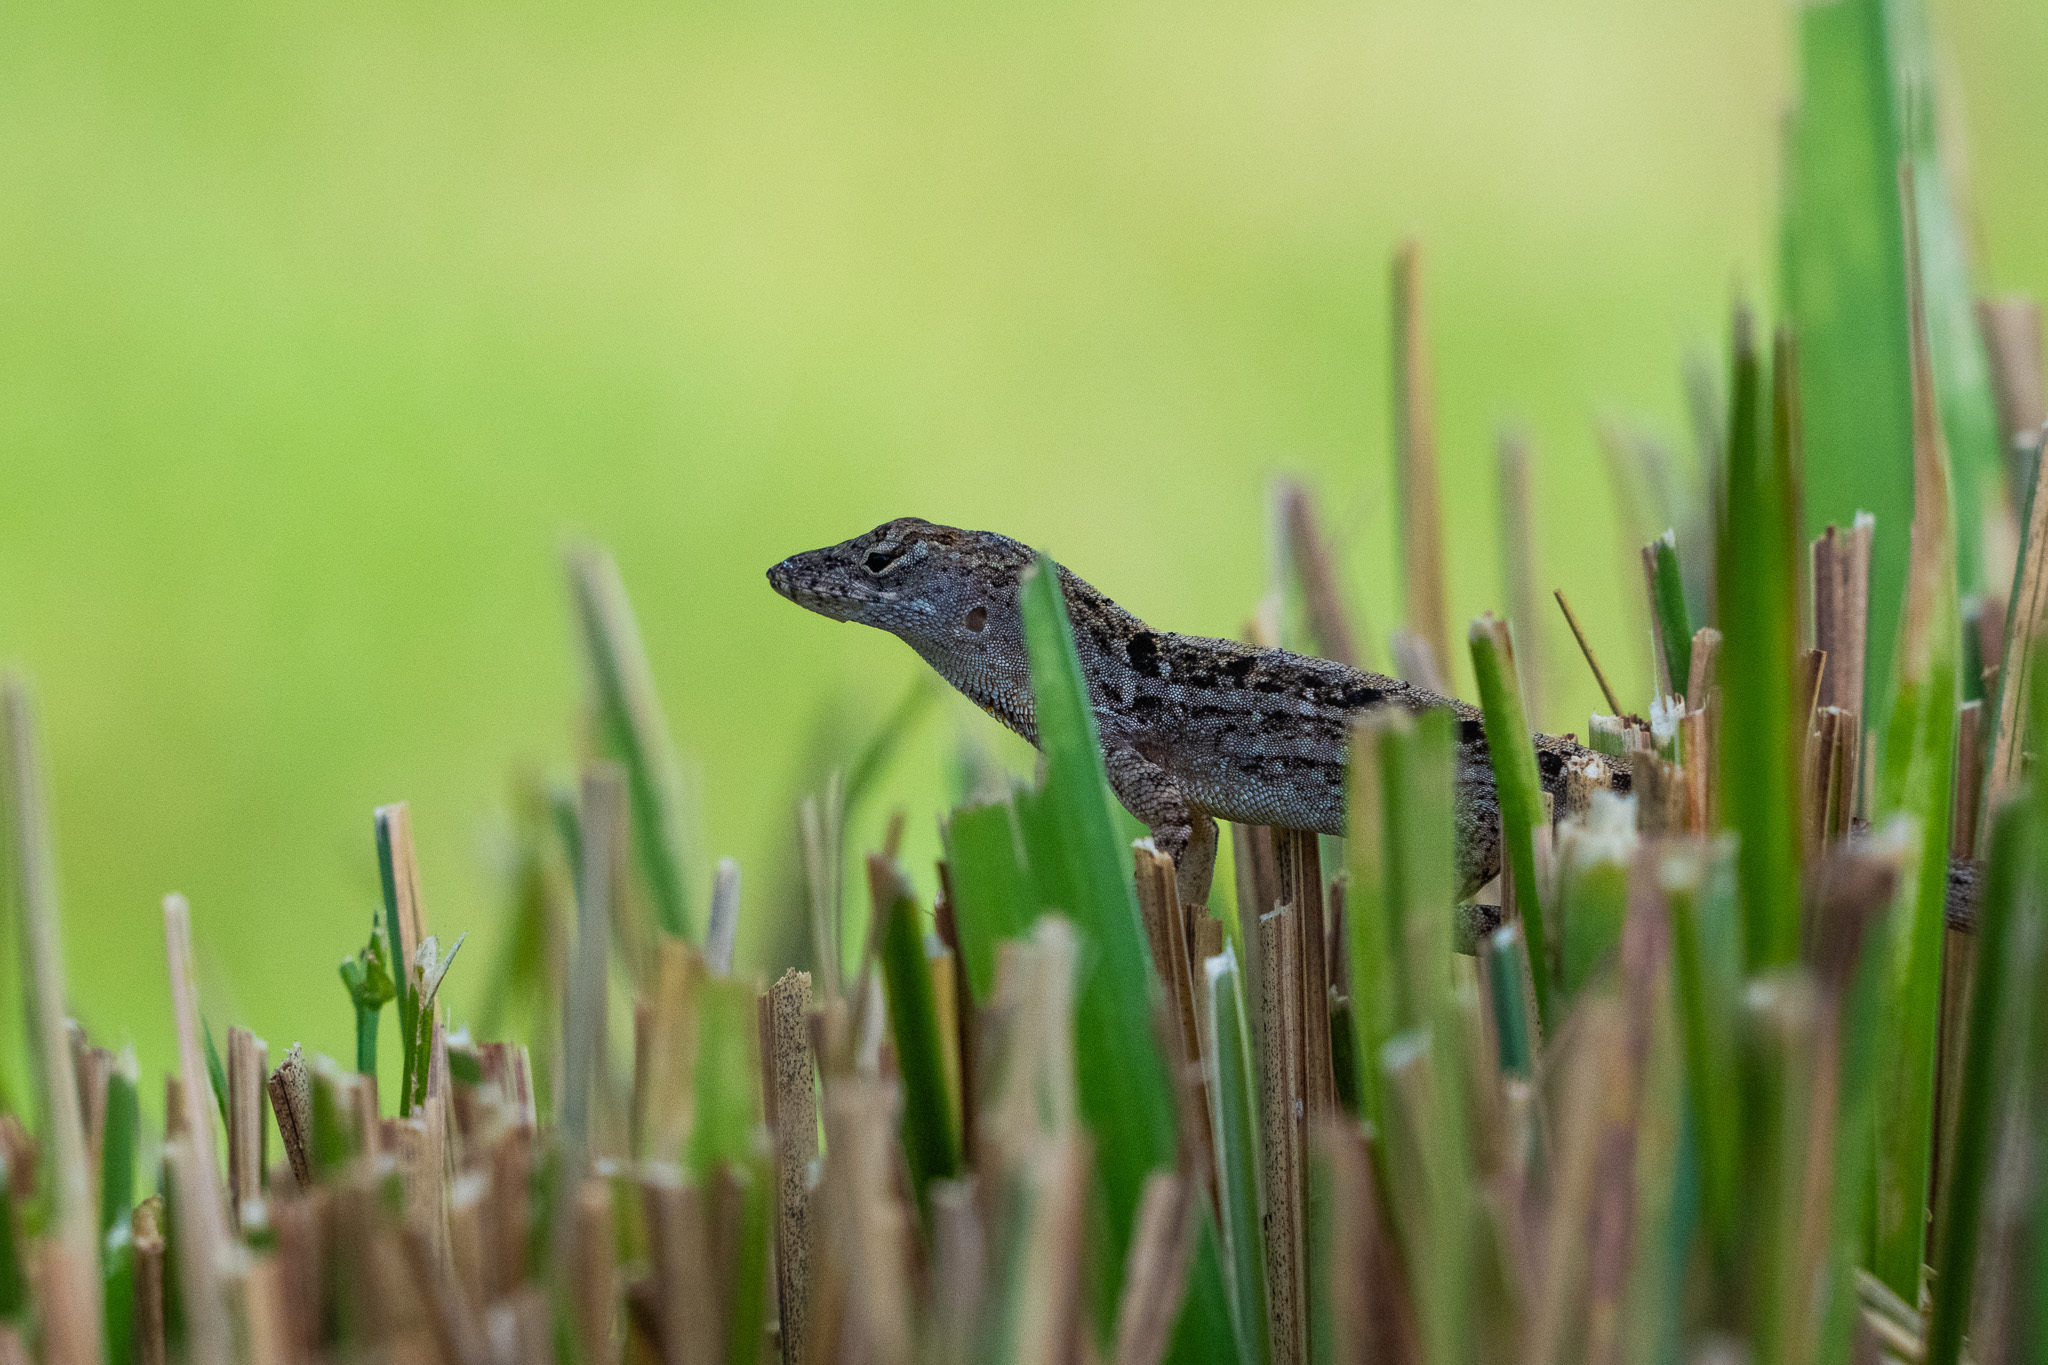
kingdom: Animalia
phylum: Chordata
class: Squamata
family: Dactyloidae
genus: Anolis
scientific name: Anolis sagrei
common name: Brown anole
